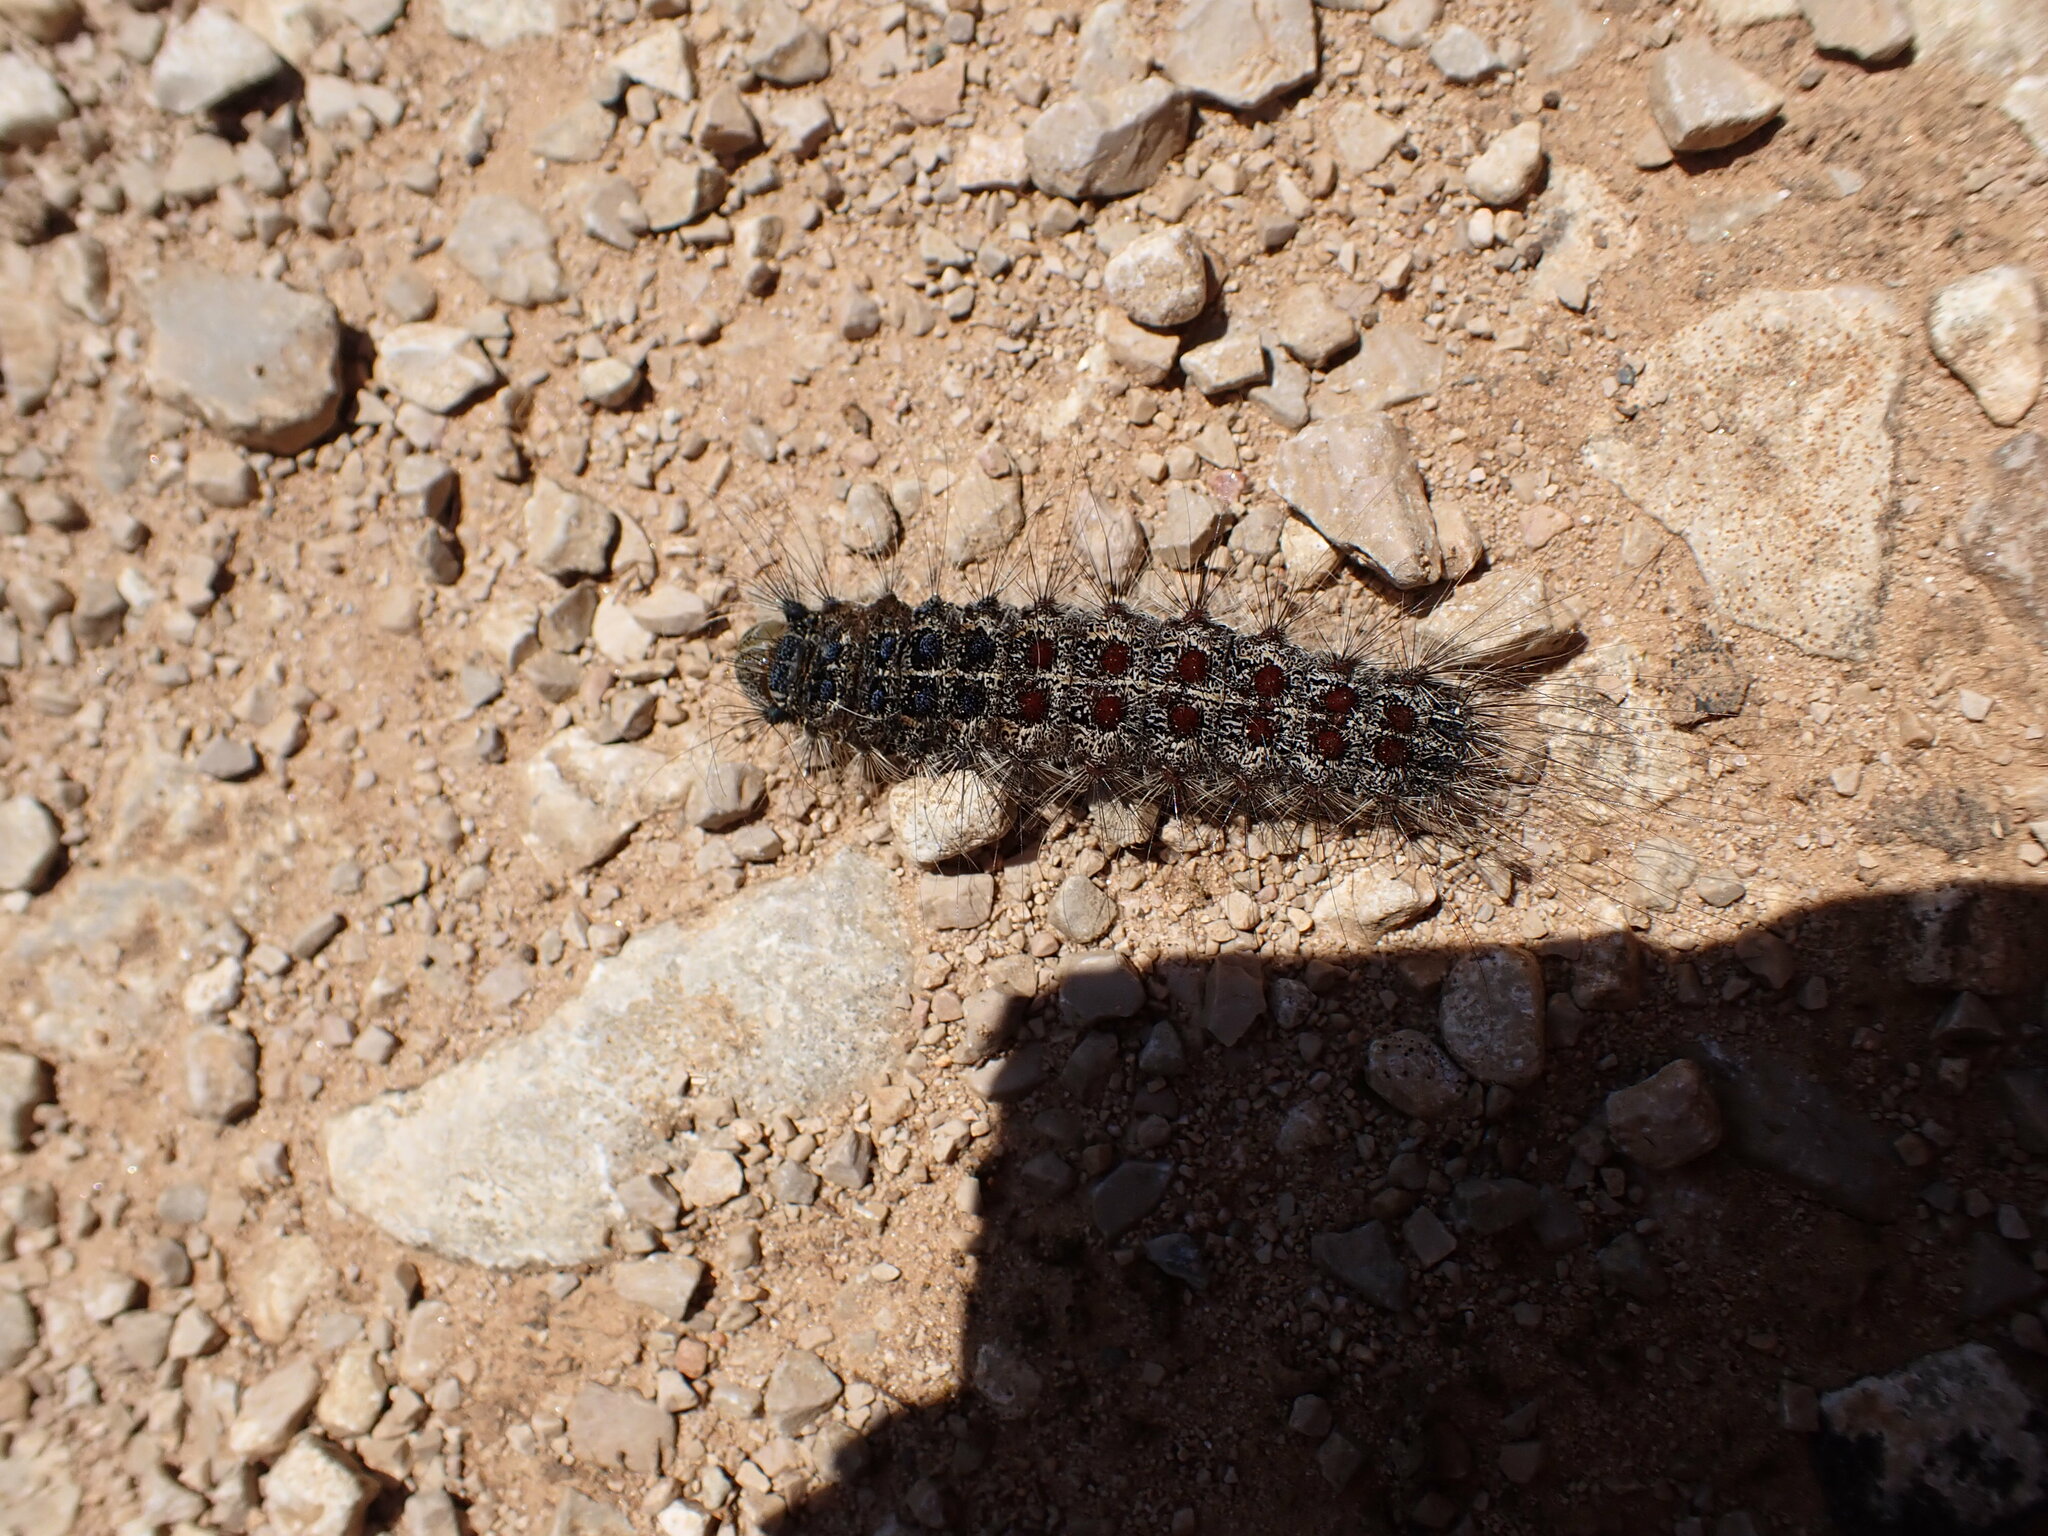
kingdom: Animalia
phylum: Arthropoda
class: Insecta
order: Lepidoptera
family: Erebidae
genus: Lymantria
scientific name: Lymantria dispar
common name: Gypsy moth
